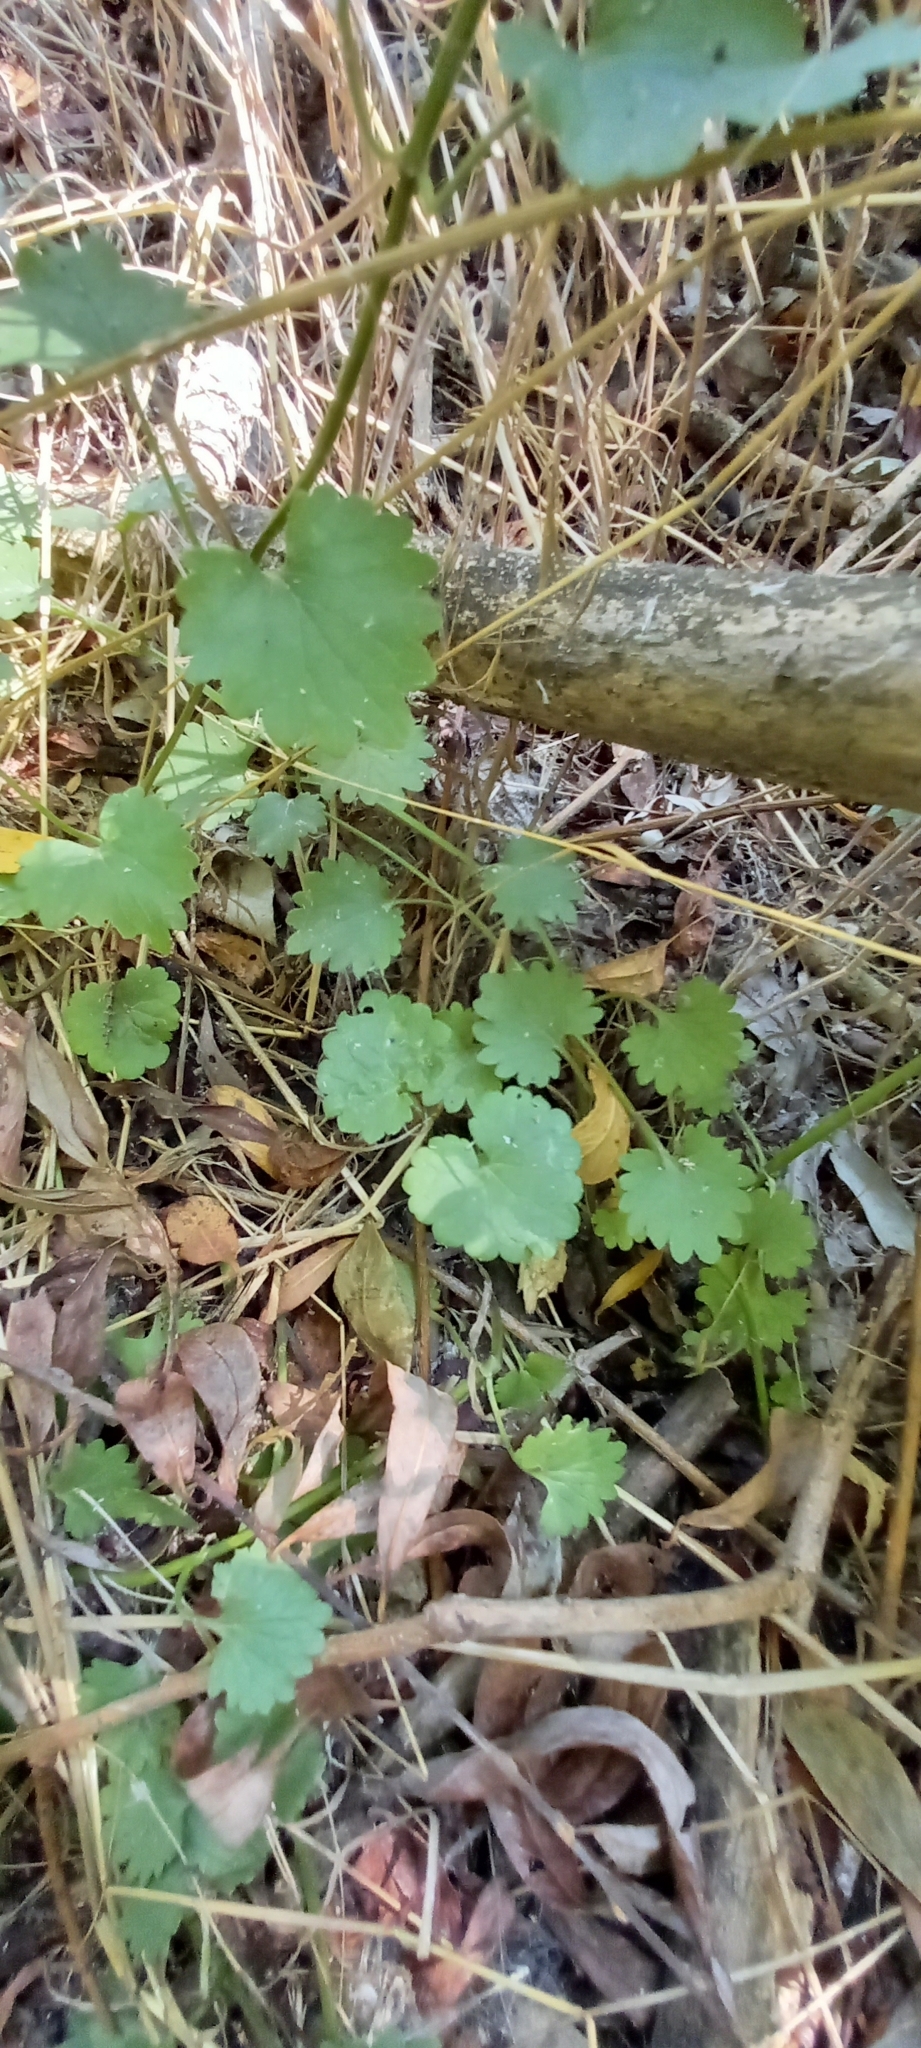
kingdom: Plantae
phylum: Tracheophyta
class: Magnoliopsida
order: Lamiales
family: Lamiaceae
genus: Glechoma
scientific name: Glechoma hederacea
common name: Ground ivy
